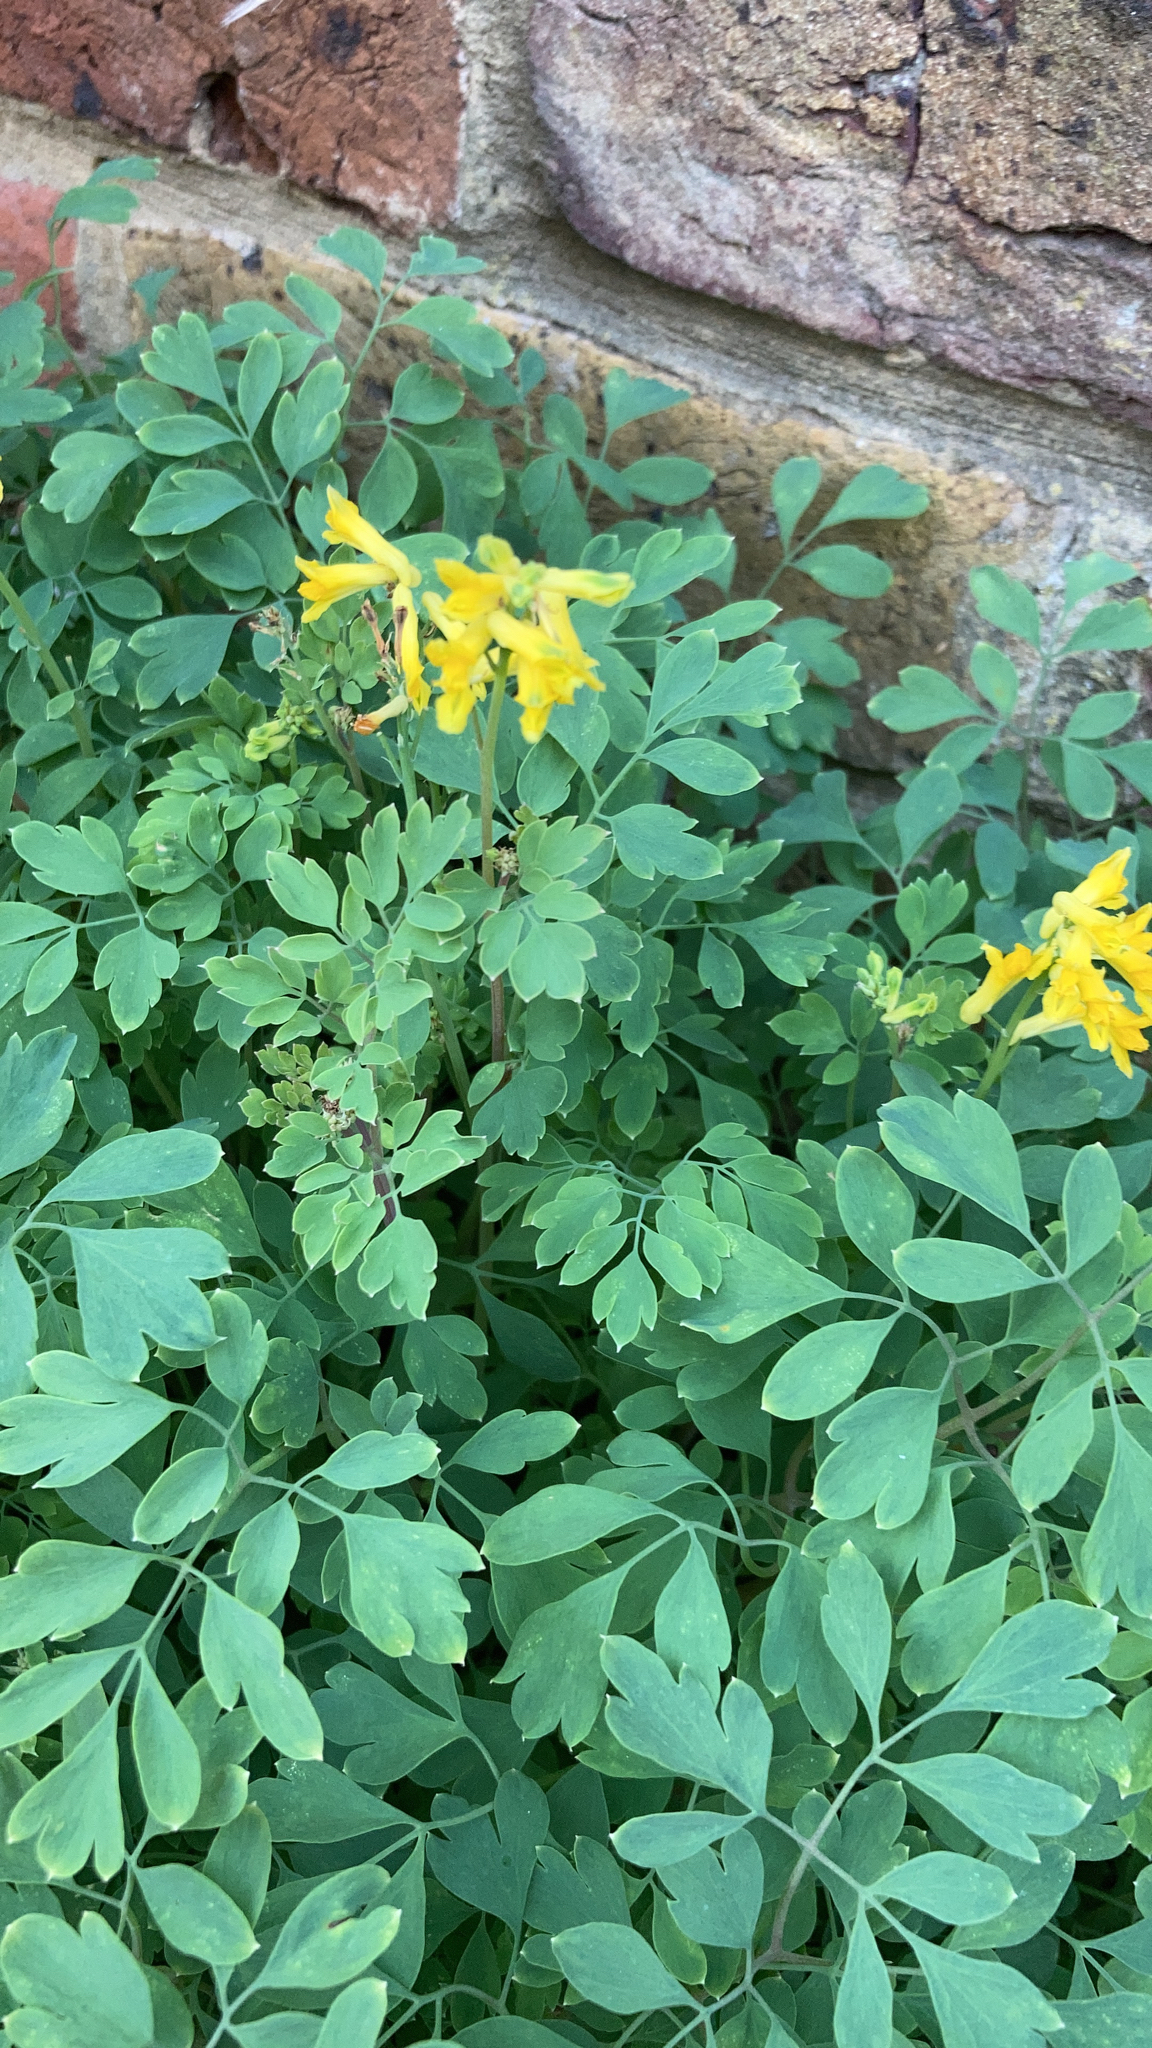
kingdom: Plantae
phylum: Tracheophyta
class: Magnoliopsida
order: Ranunculales
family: Papaveraceae
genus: Pseudofumaria
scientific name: Pseudofumaria lutea
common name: Yellow corydalis
